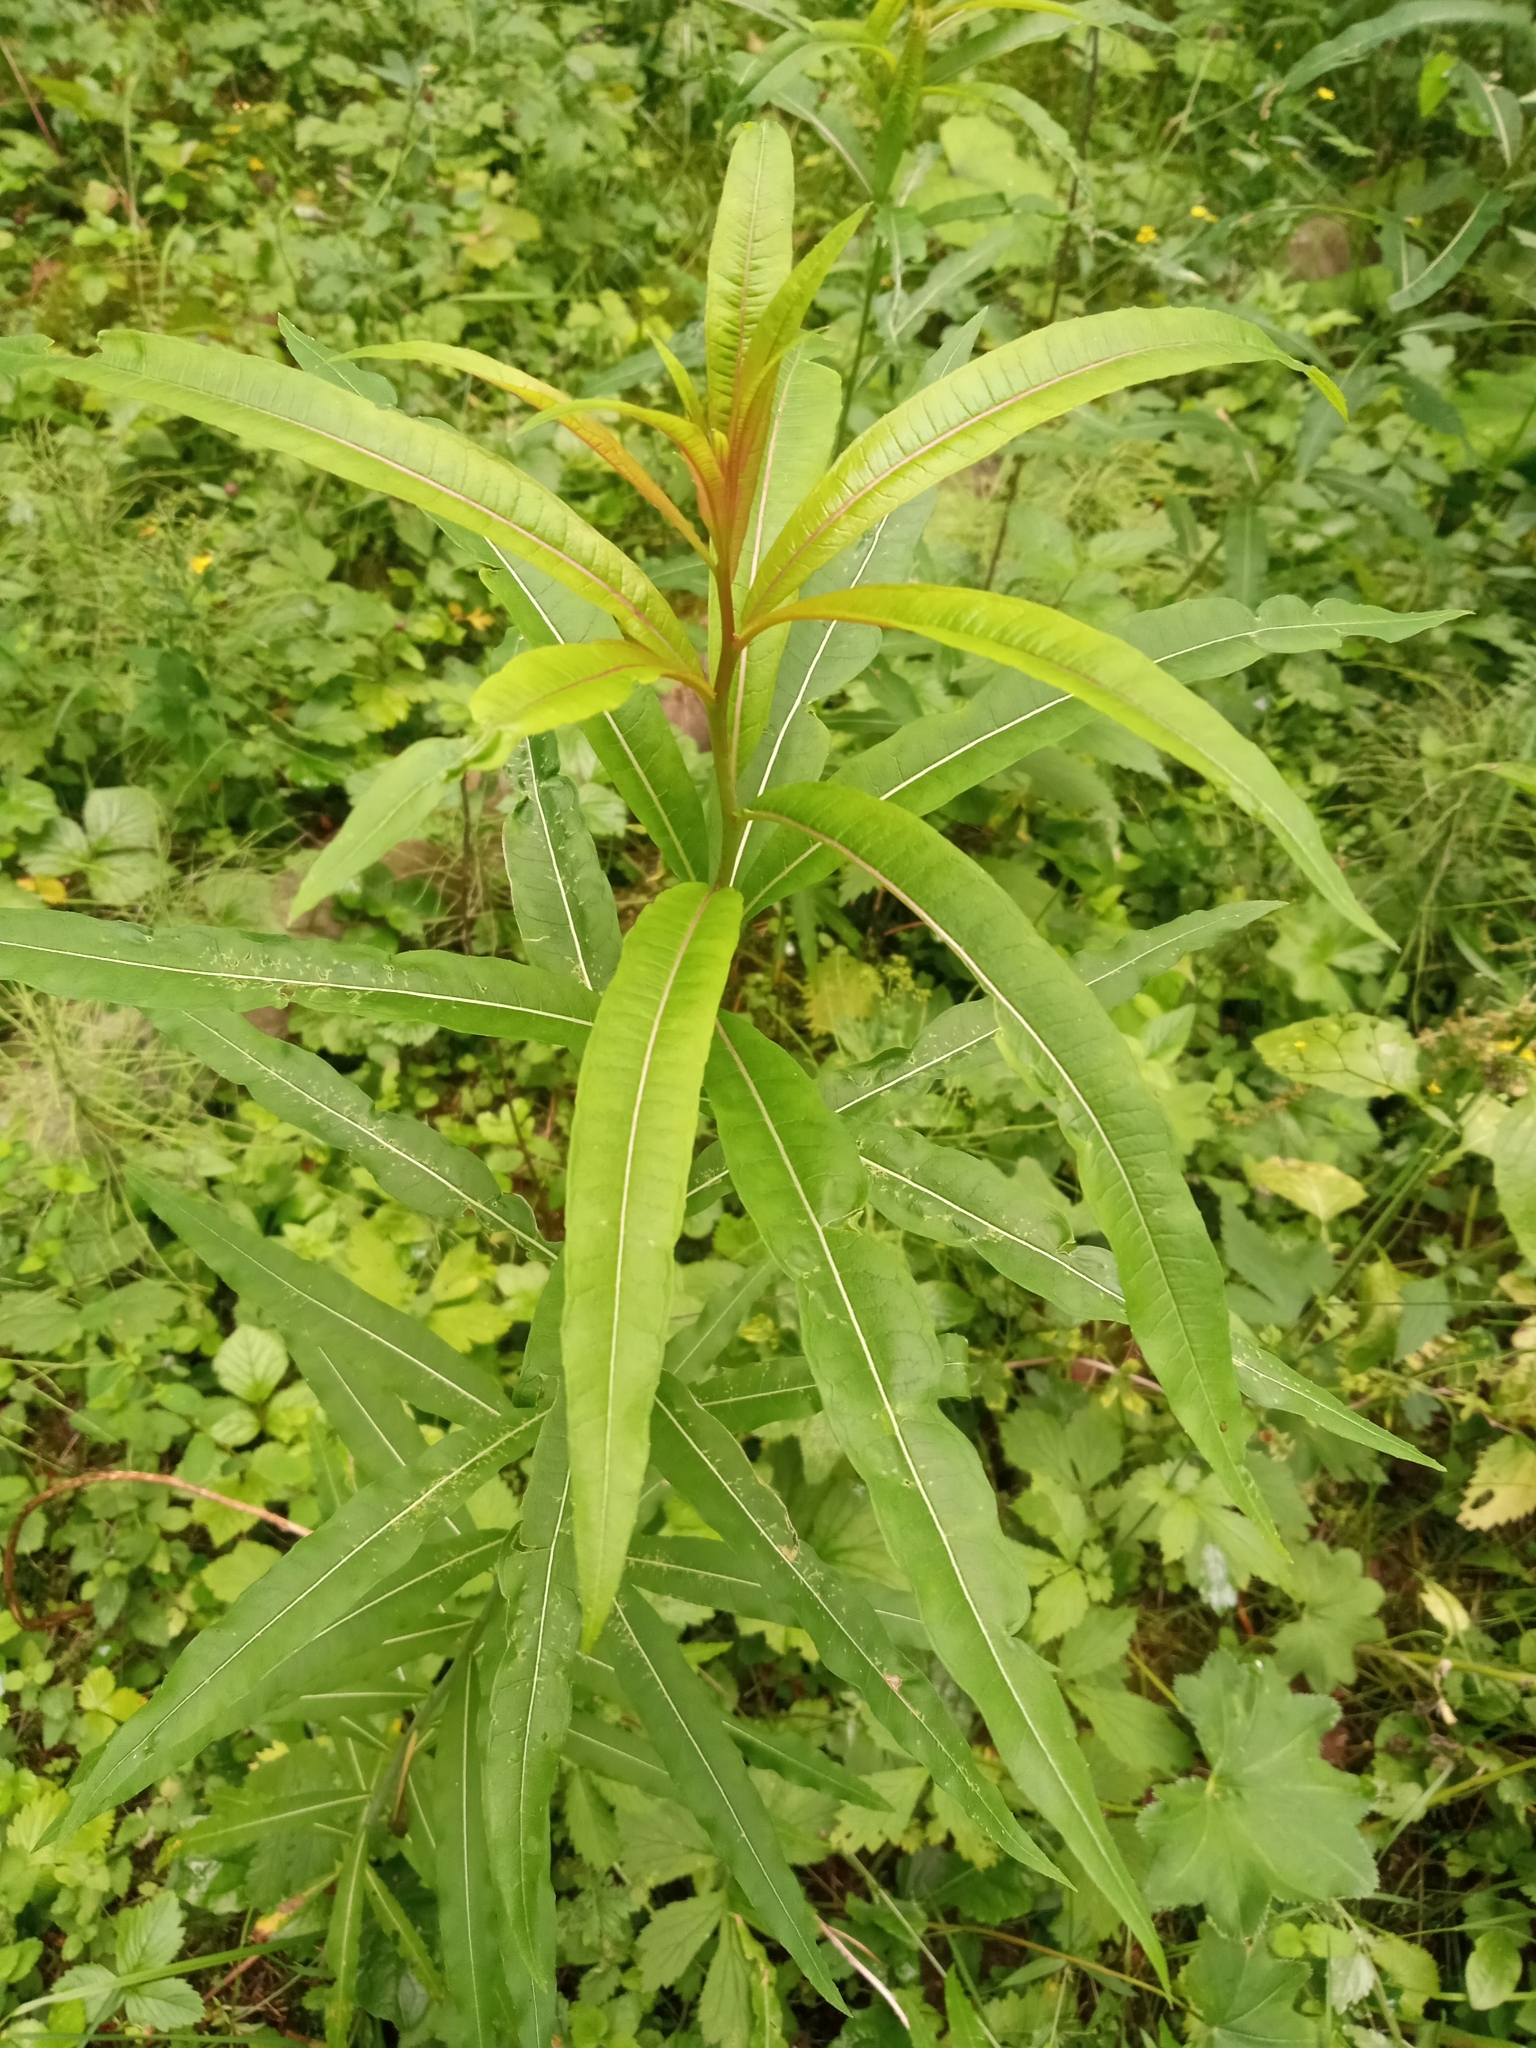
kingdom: Plantae
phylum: Tracheophyta
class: Magnoliopsida
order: Myrtales
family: Onagraceae
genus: Chamaenerion
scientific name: Chamaenerion angustifolium
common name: Fireweed
